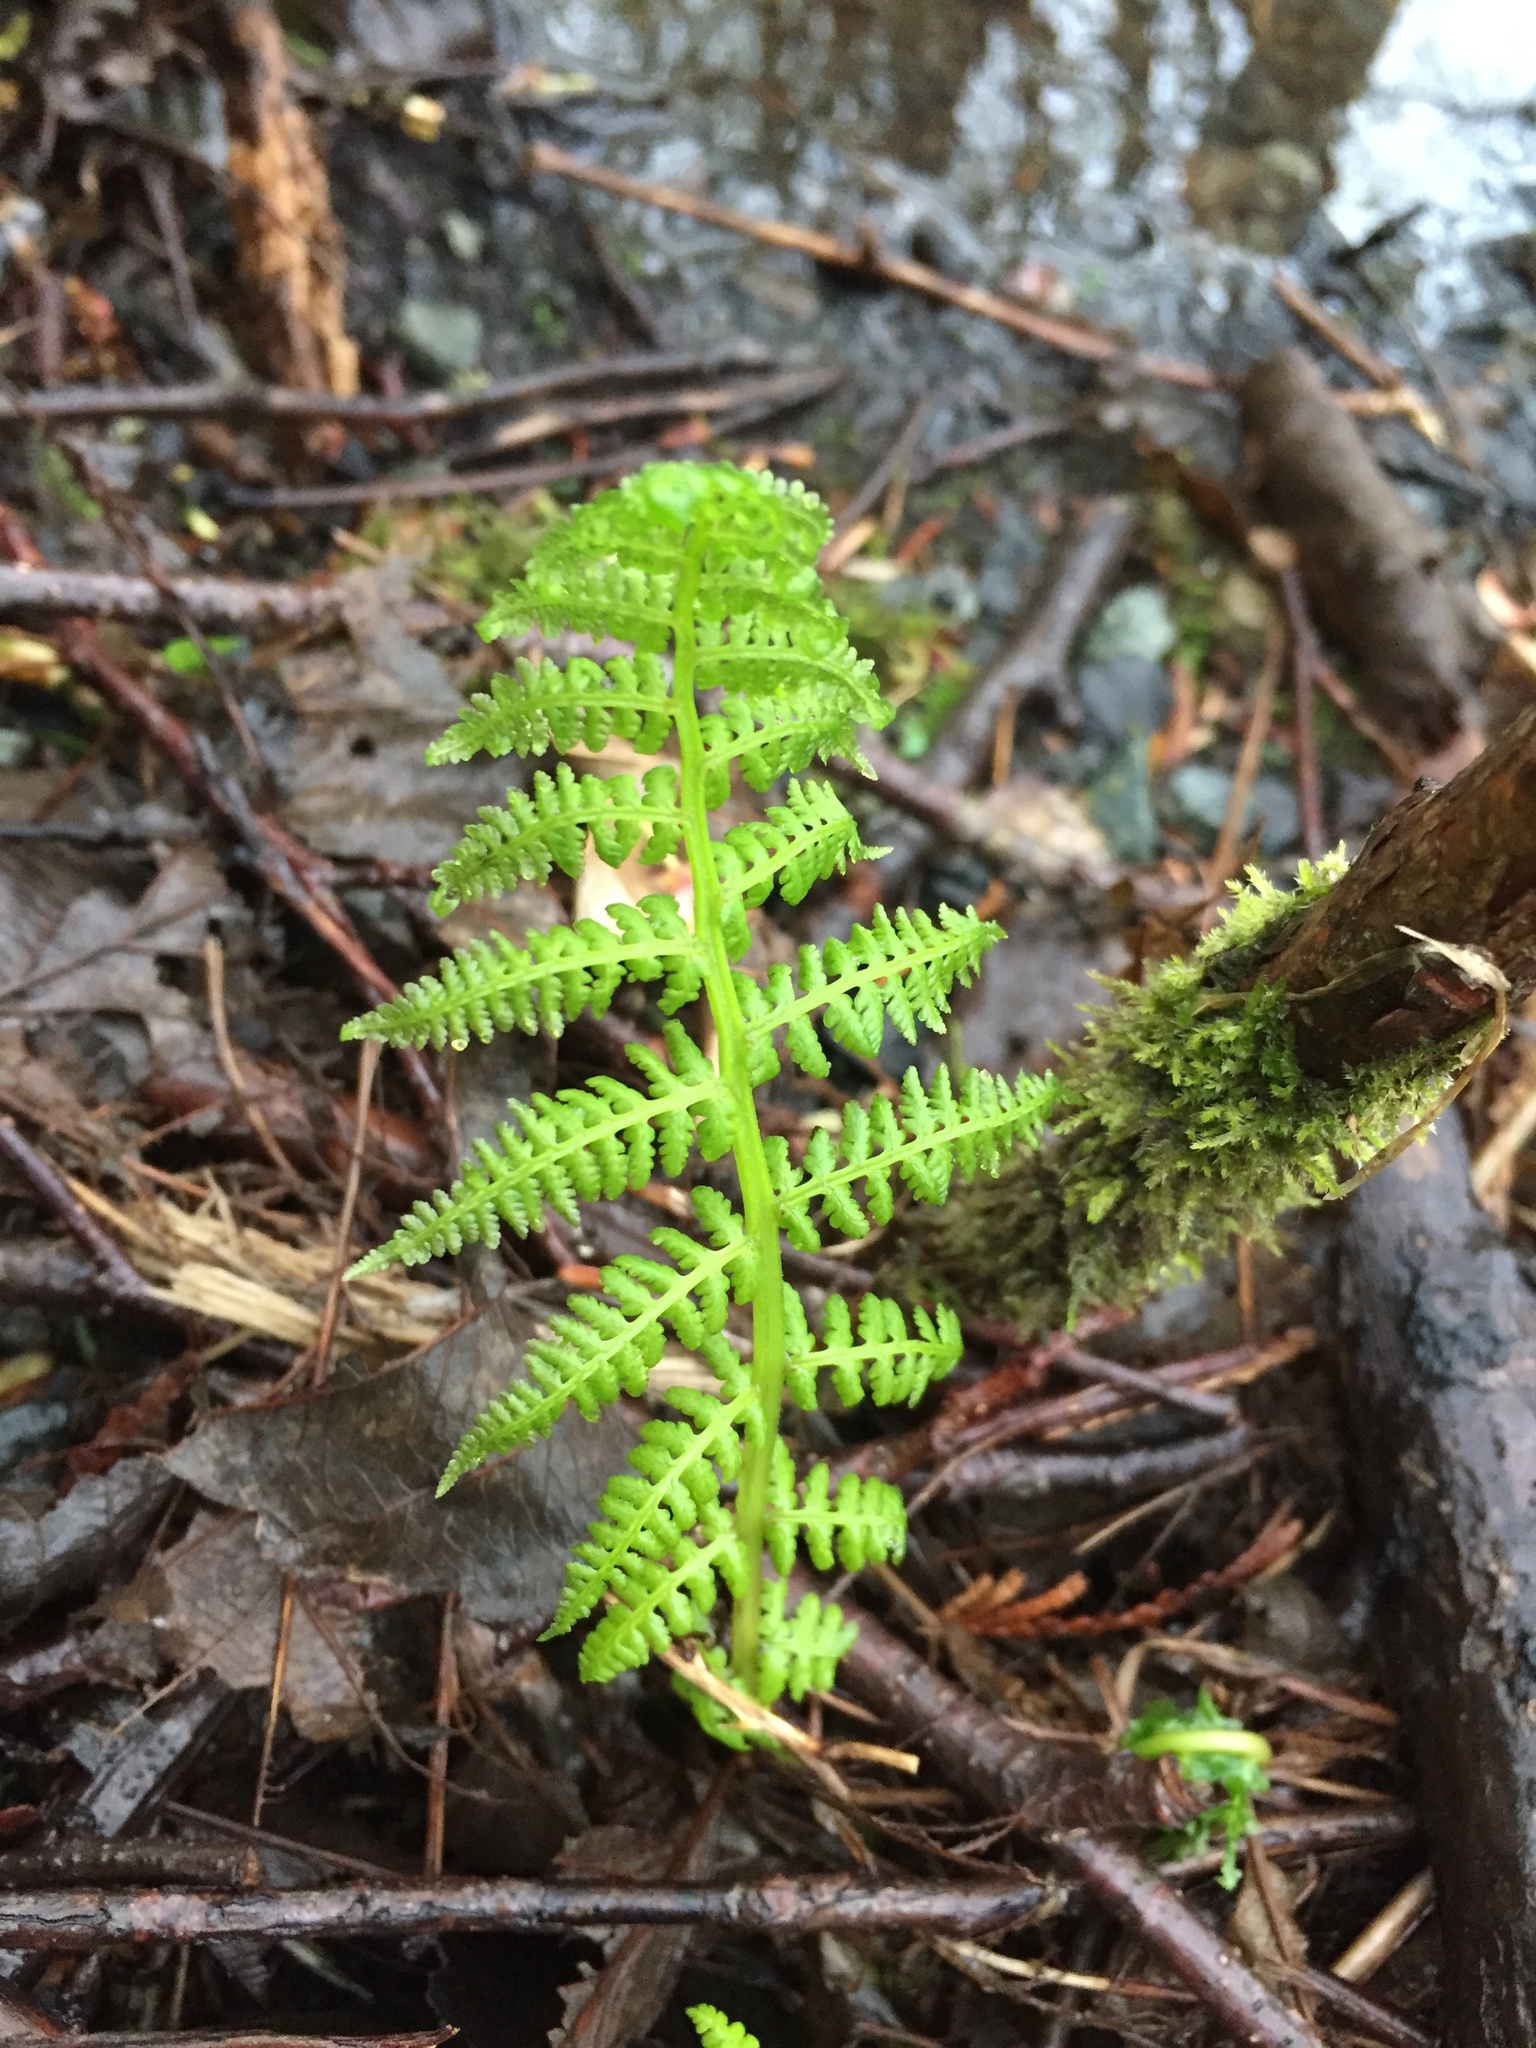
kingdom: Plantae
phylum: Tracheophyta
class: Polypodiopsida
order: Polypodiales
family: Athyriaceae
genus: Athyrium
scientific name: Athyrium filix-femina
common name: Lady fern
